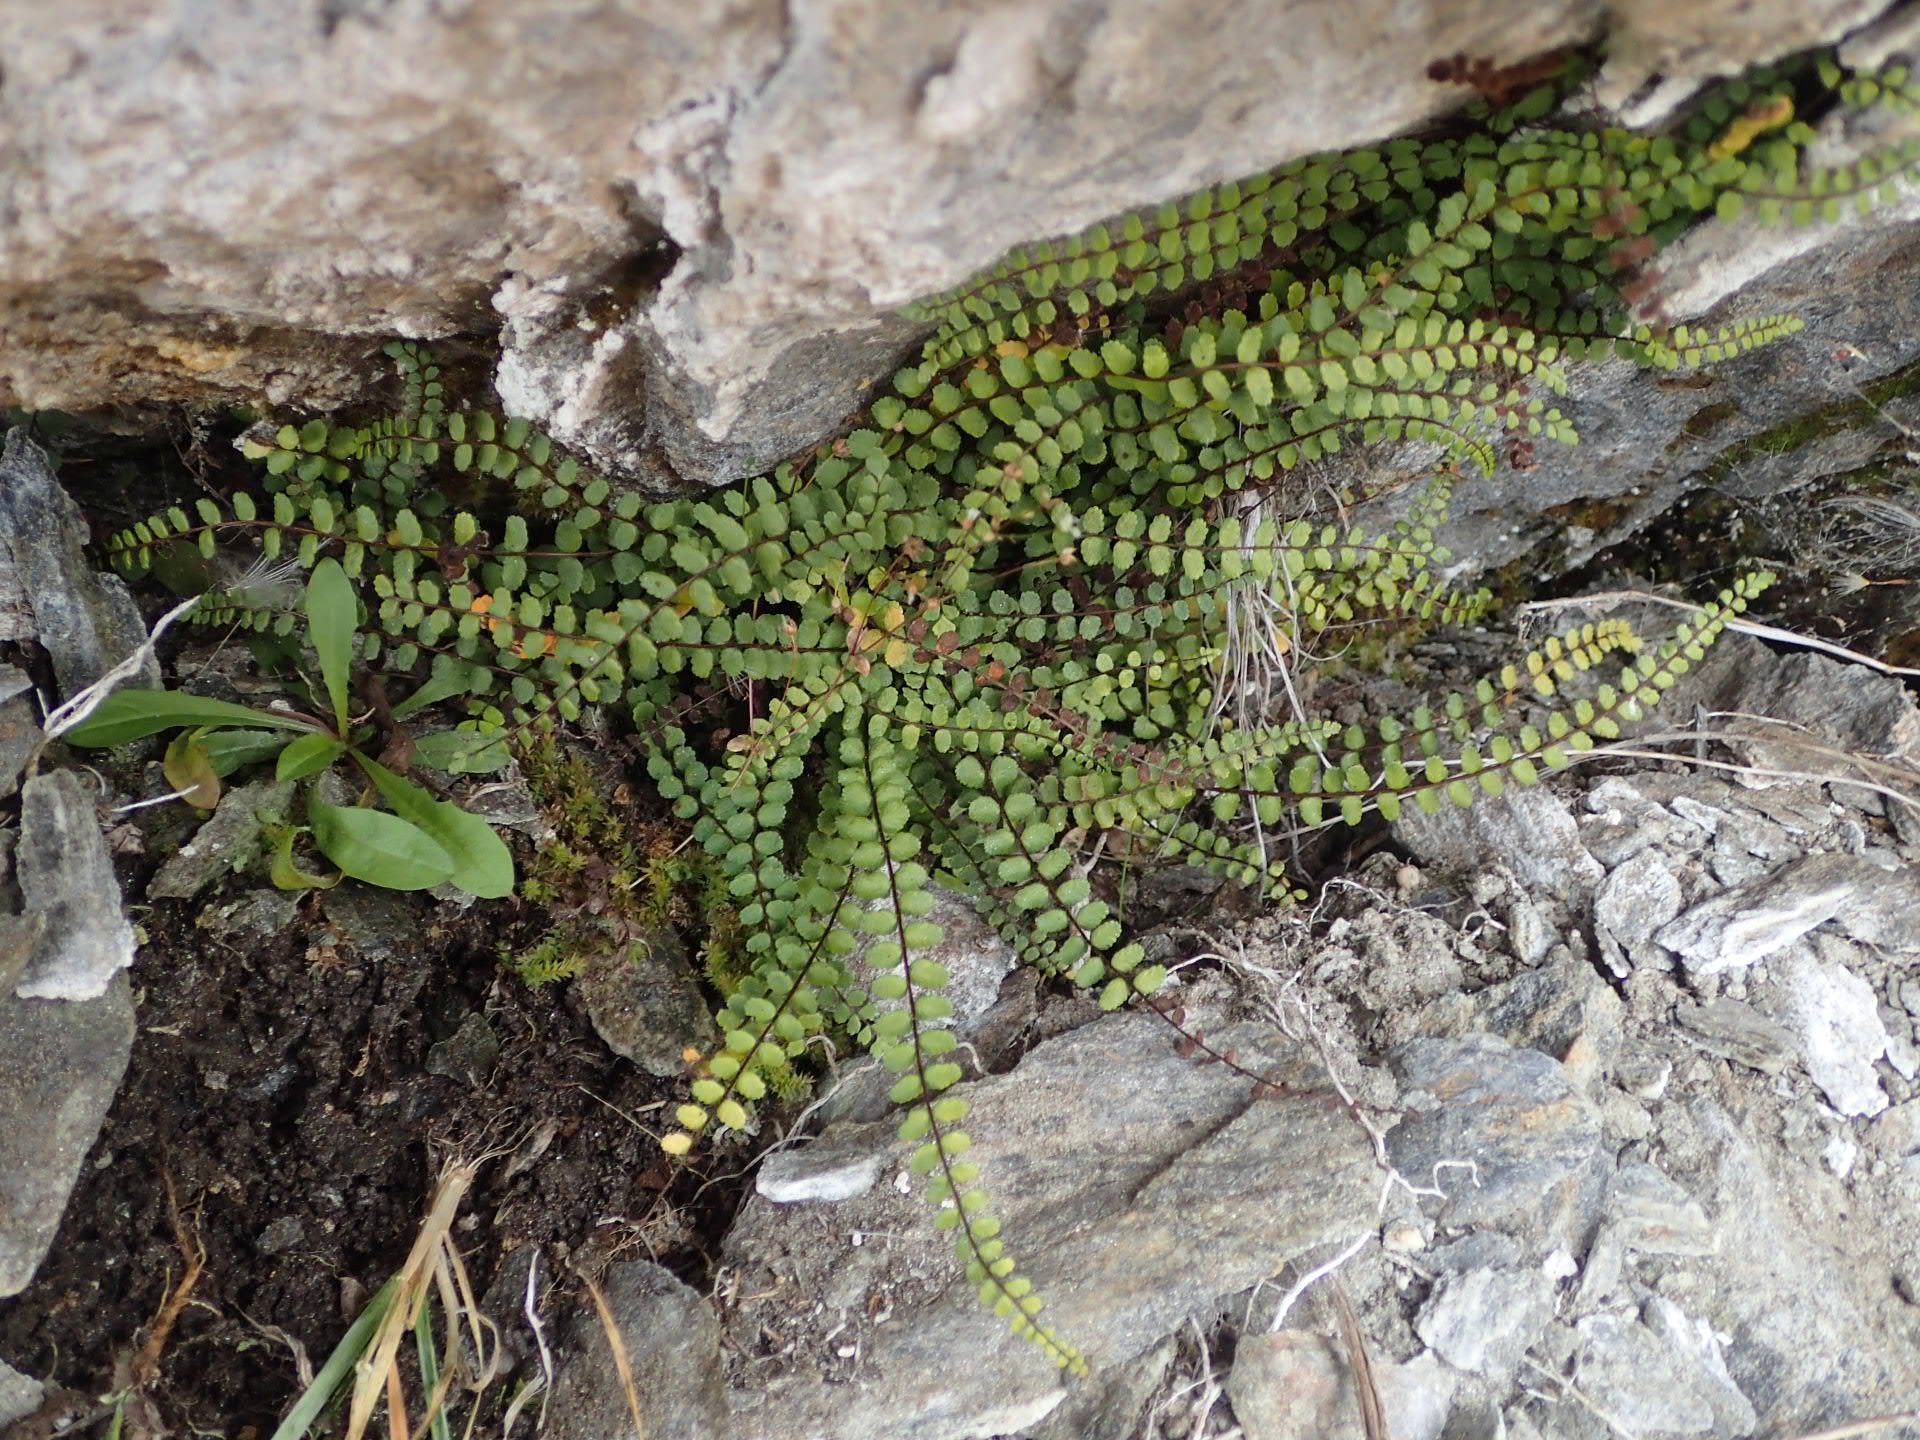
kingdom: Plantae
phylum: Tracheophyta
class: Polypodiopsida
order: Polypodiales
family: Aspleniaceae
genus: Asplenium
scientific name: Asplenium trichomanes
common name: Maidenhair spleenwort
